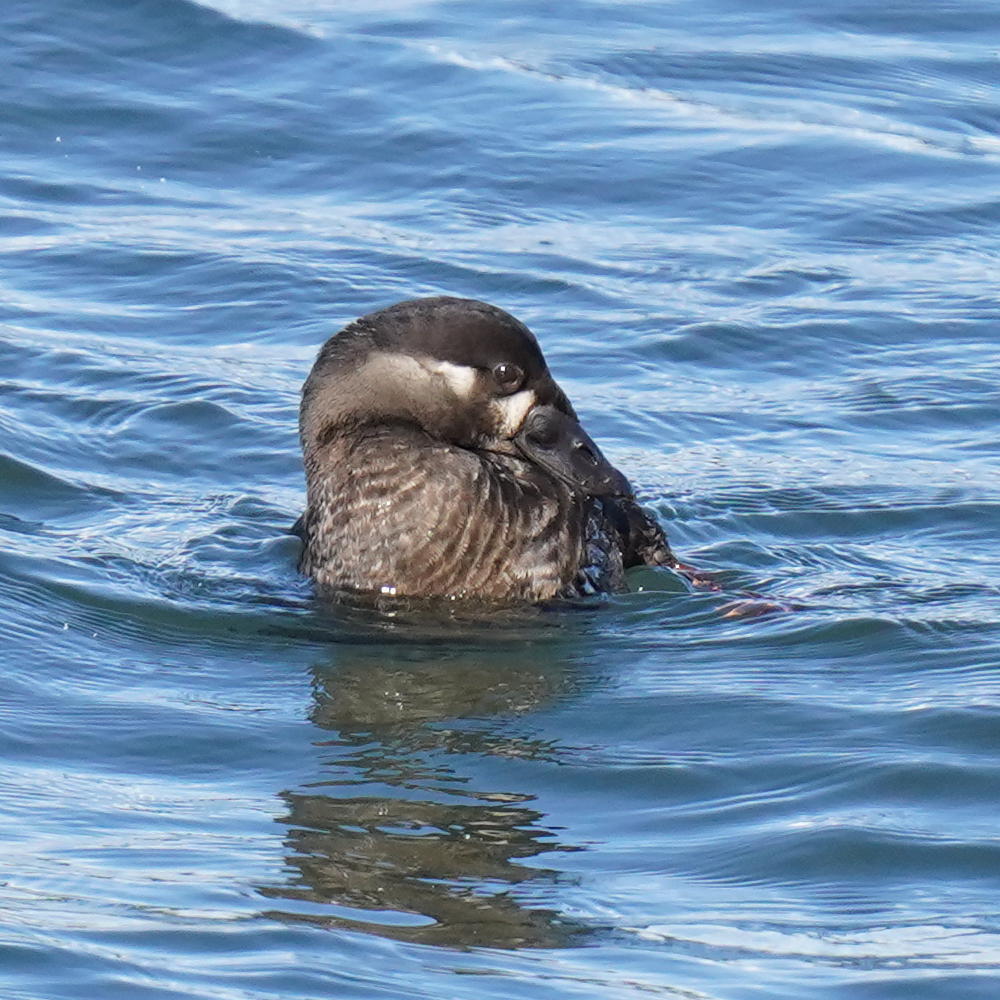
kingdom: Animalia
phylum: Chordata
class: Aves
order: Anseriformes
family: Anatidae
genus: Melanitta
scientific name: Melanitta perspicillata
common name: Surf scoter
